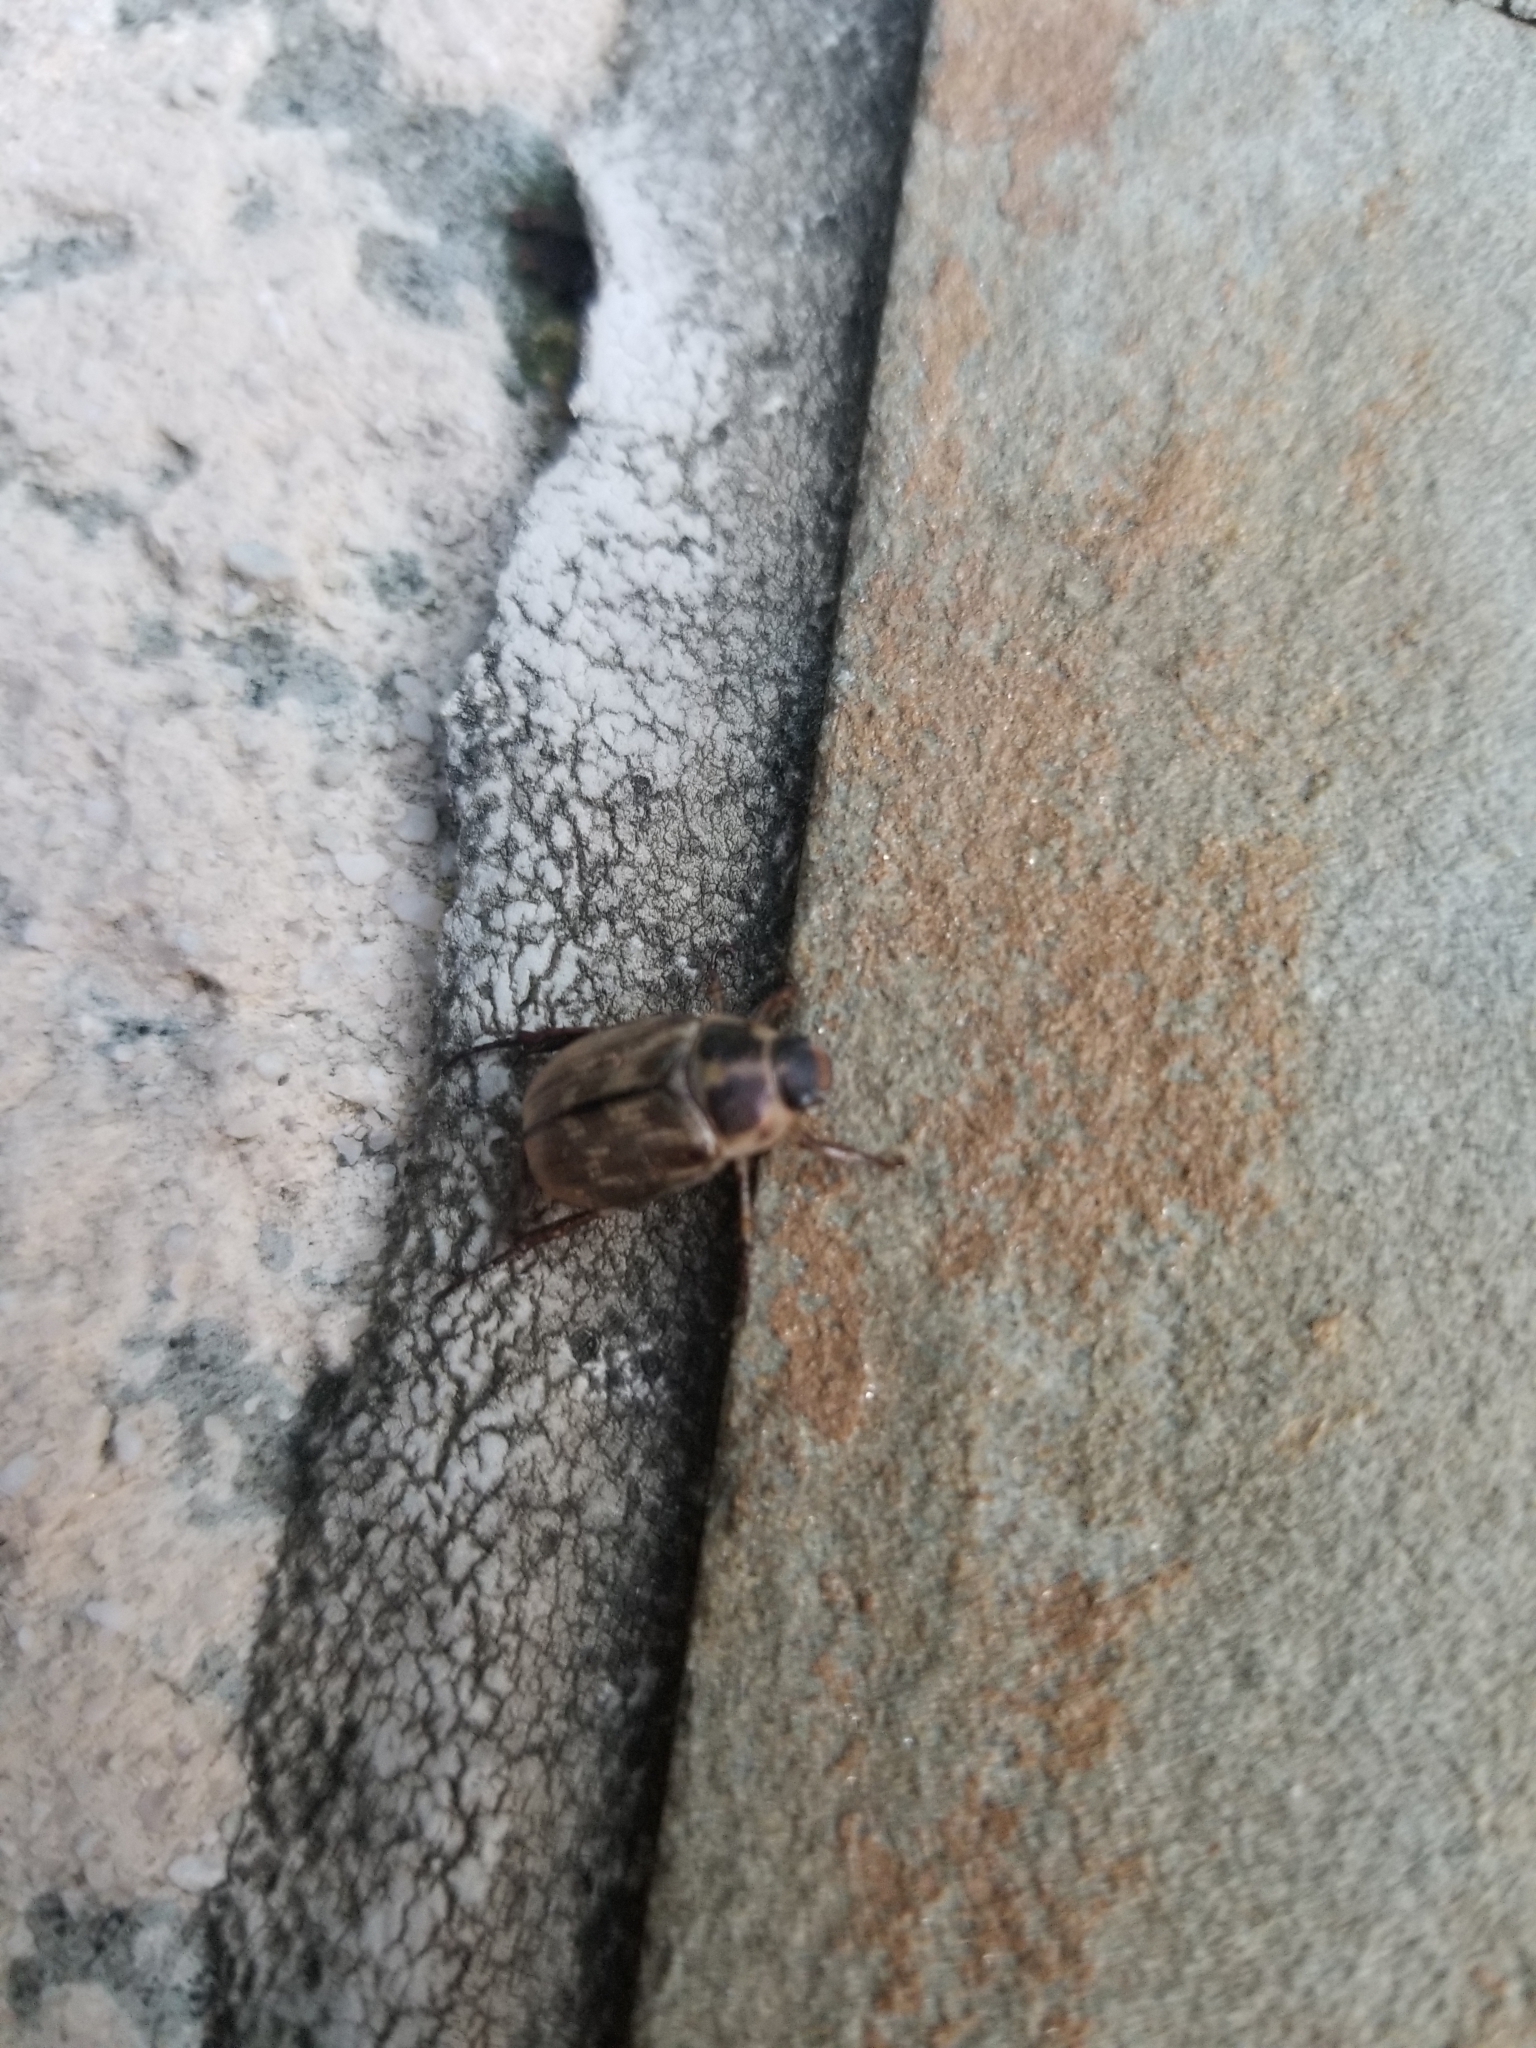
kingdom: Animalia
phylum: Arthropoda
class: Insecta
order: Coleoptera
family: Scarabaeidae
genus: Exomala
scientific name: Exomala orientalis
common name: Oriental beetle
